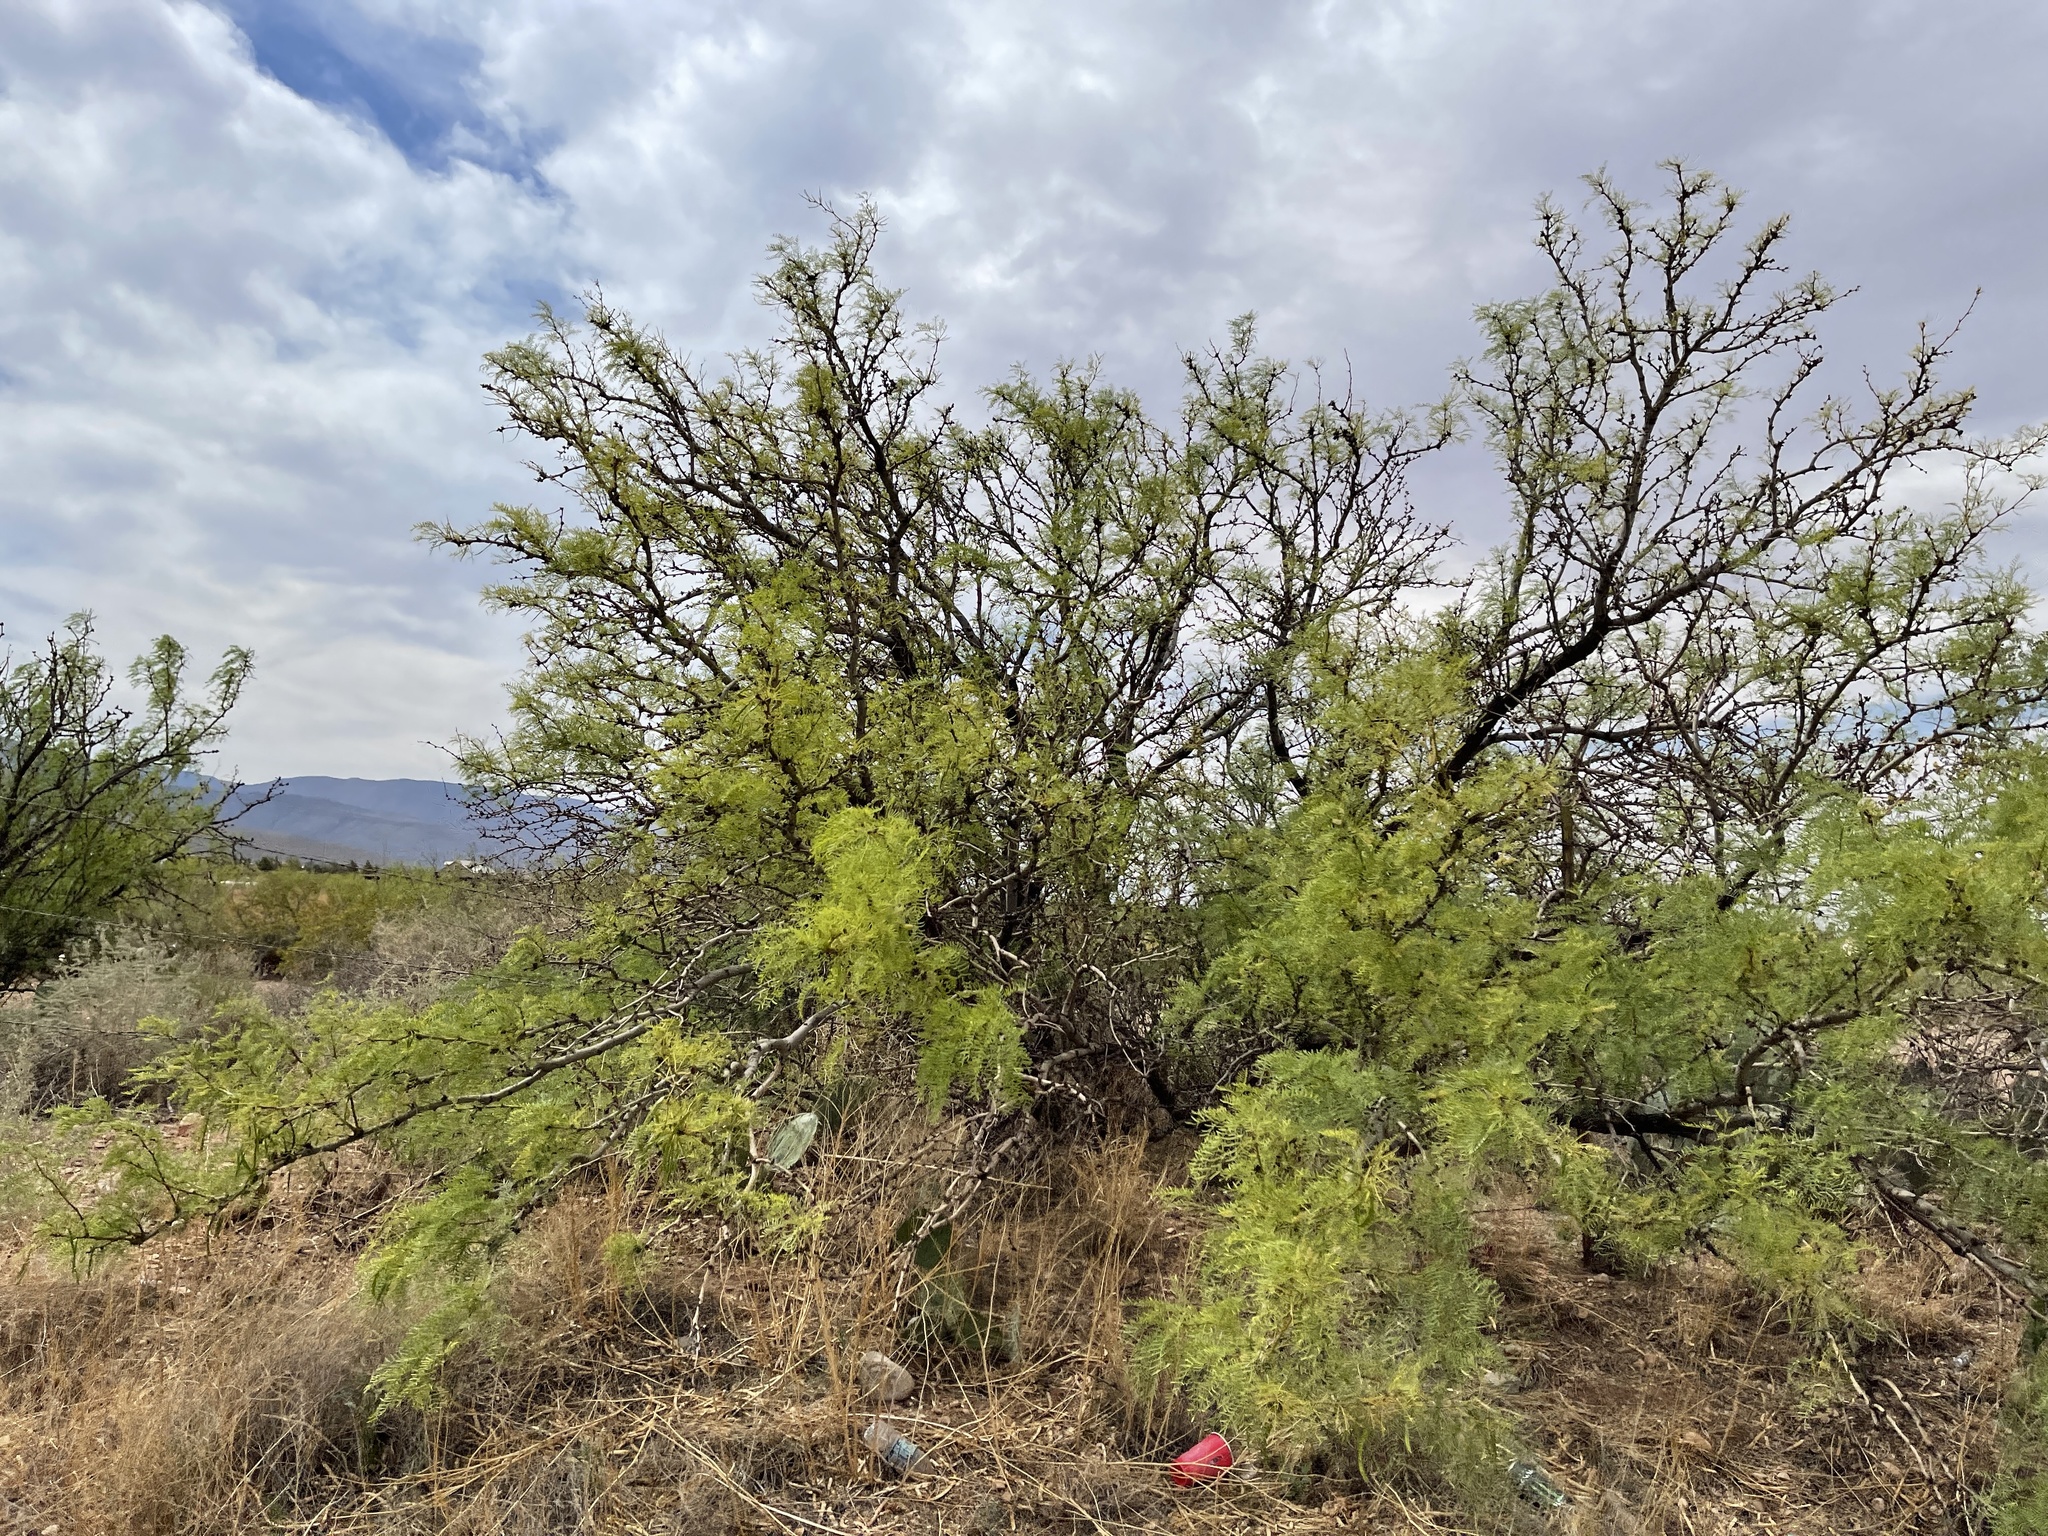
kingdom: Plantae
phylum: Tracheophyta
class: Magnoliopsida
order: Fabales
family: Fabaceae
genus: Prosopis
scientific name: Prosopis glandulosa
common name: Honey mesquite
